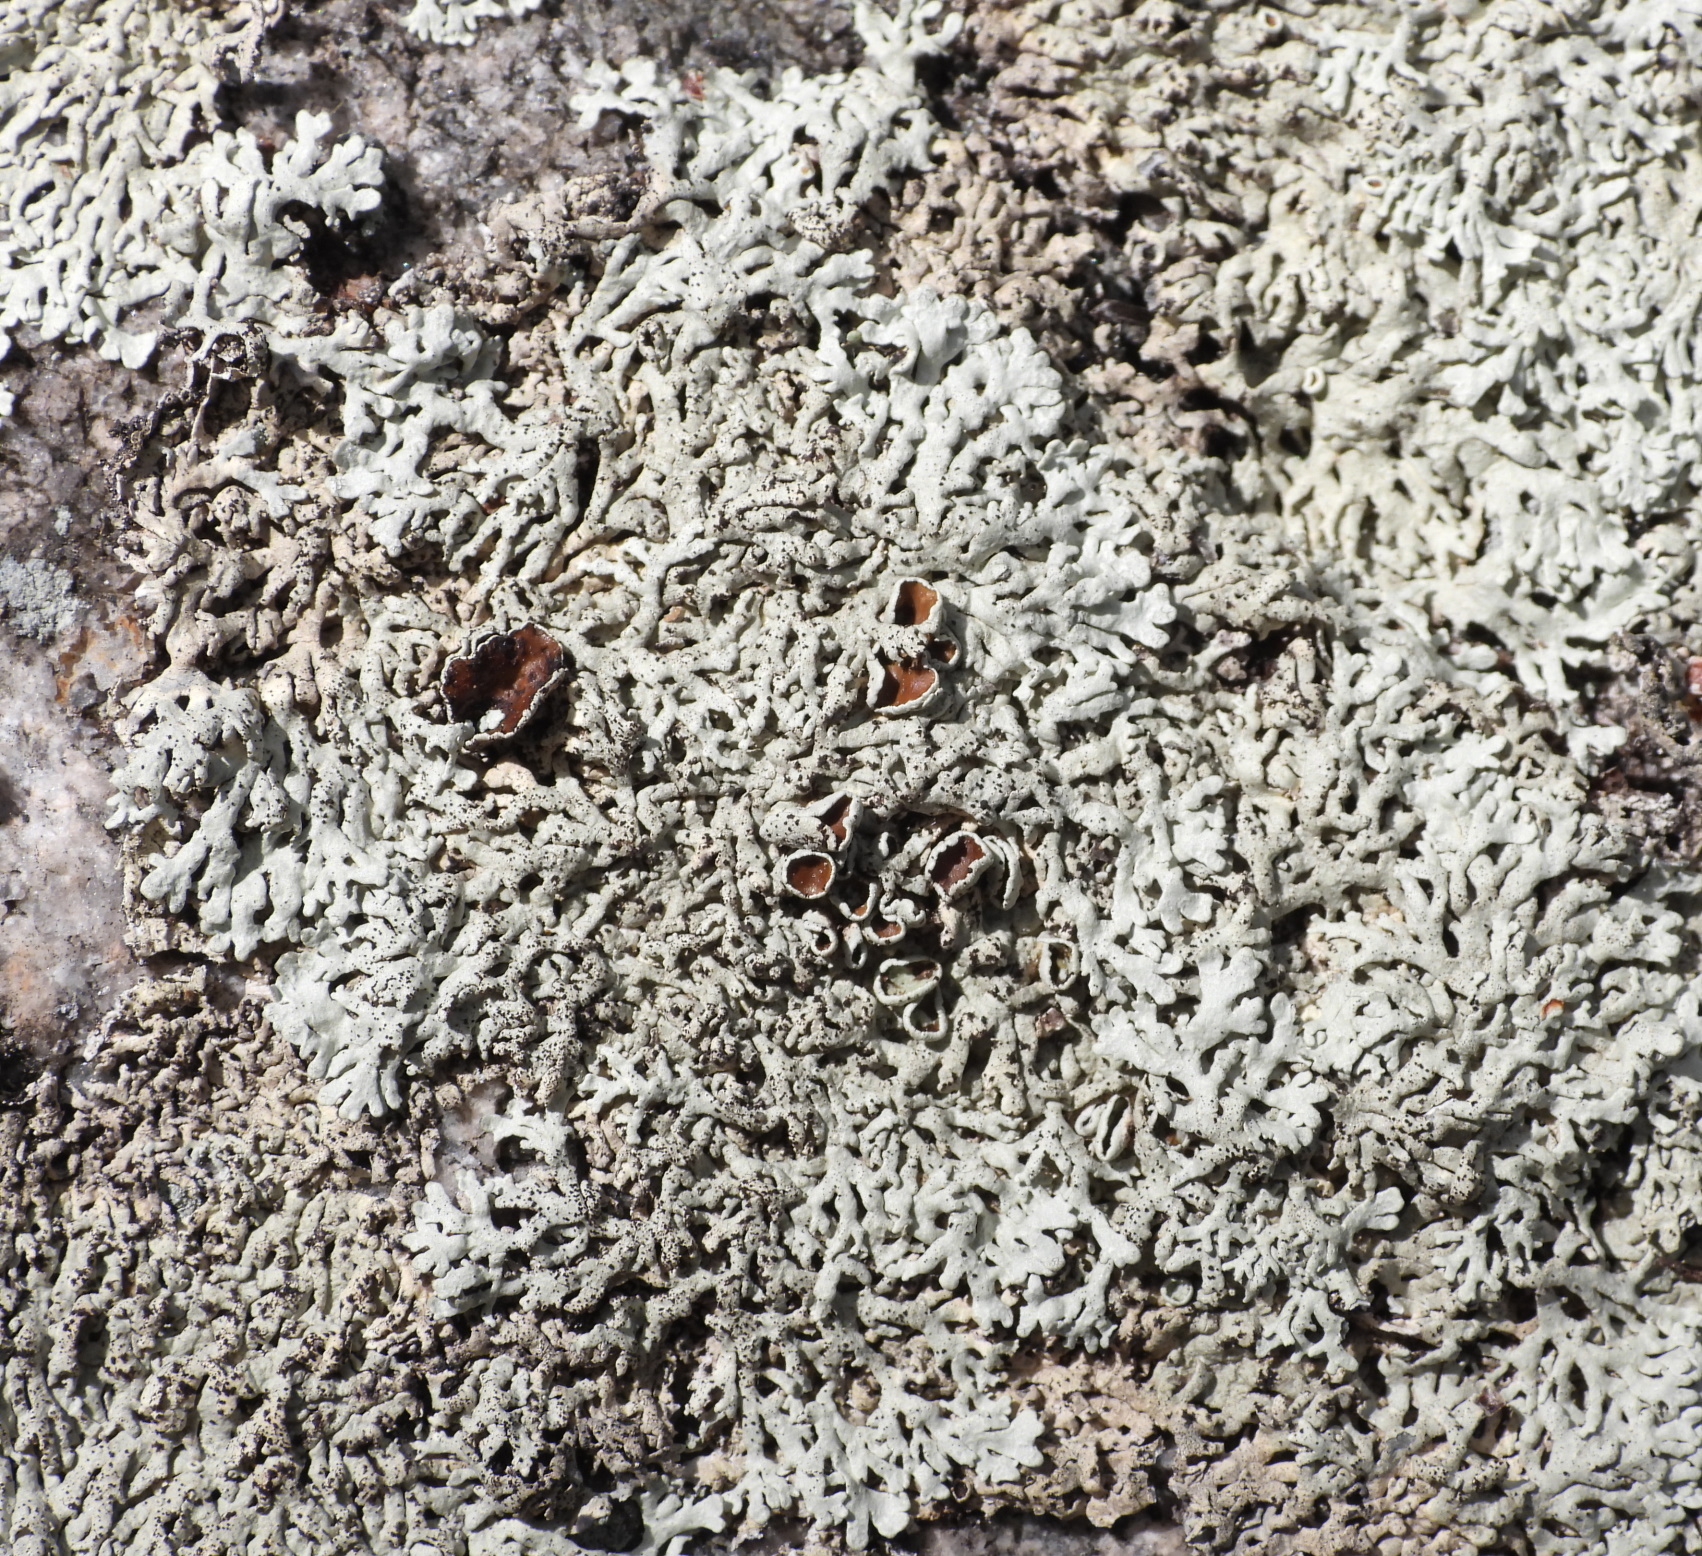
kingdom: Fungi
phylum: Ascomycota
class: Lecanoromycetes
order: Lecanorales
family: Parmeliaceae
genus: Arctoparmelia
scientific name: Arctoparmelia centrifuga
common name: Concentric ring lichen
